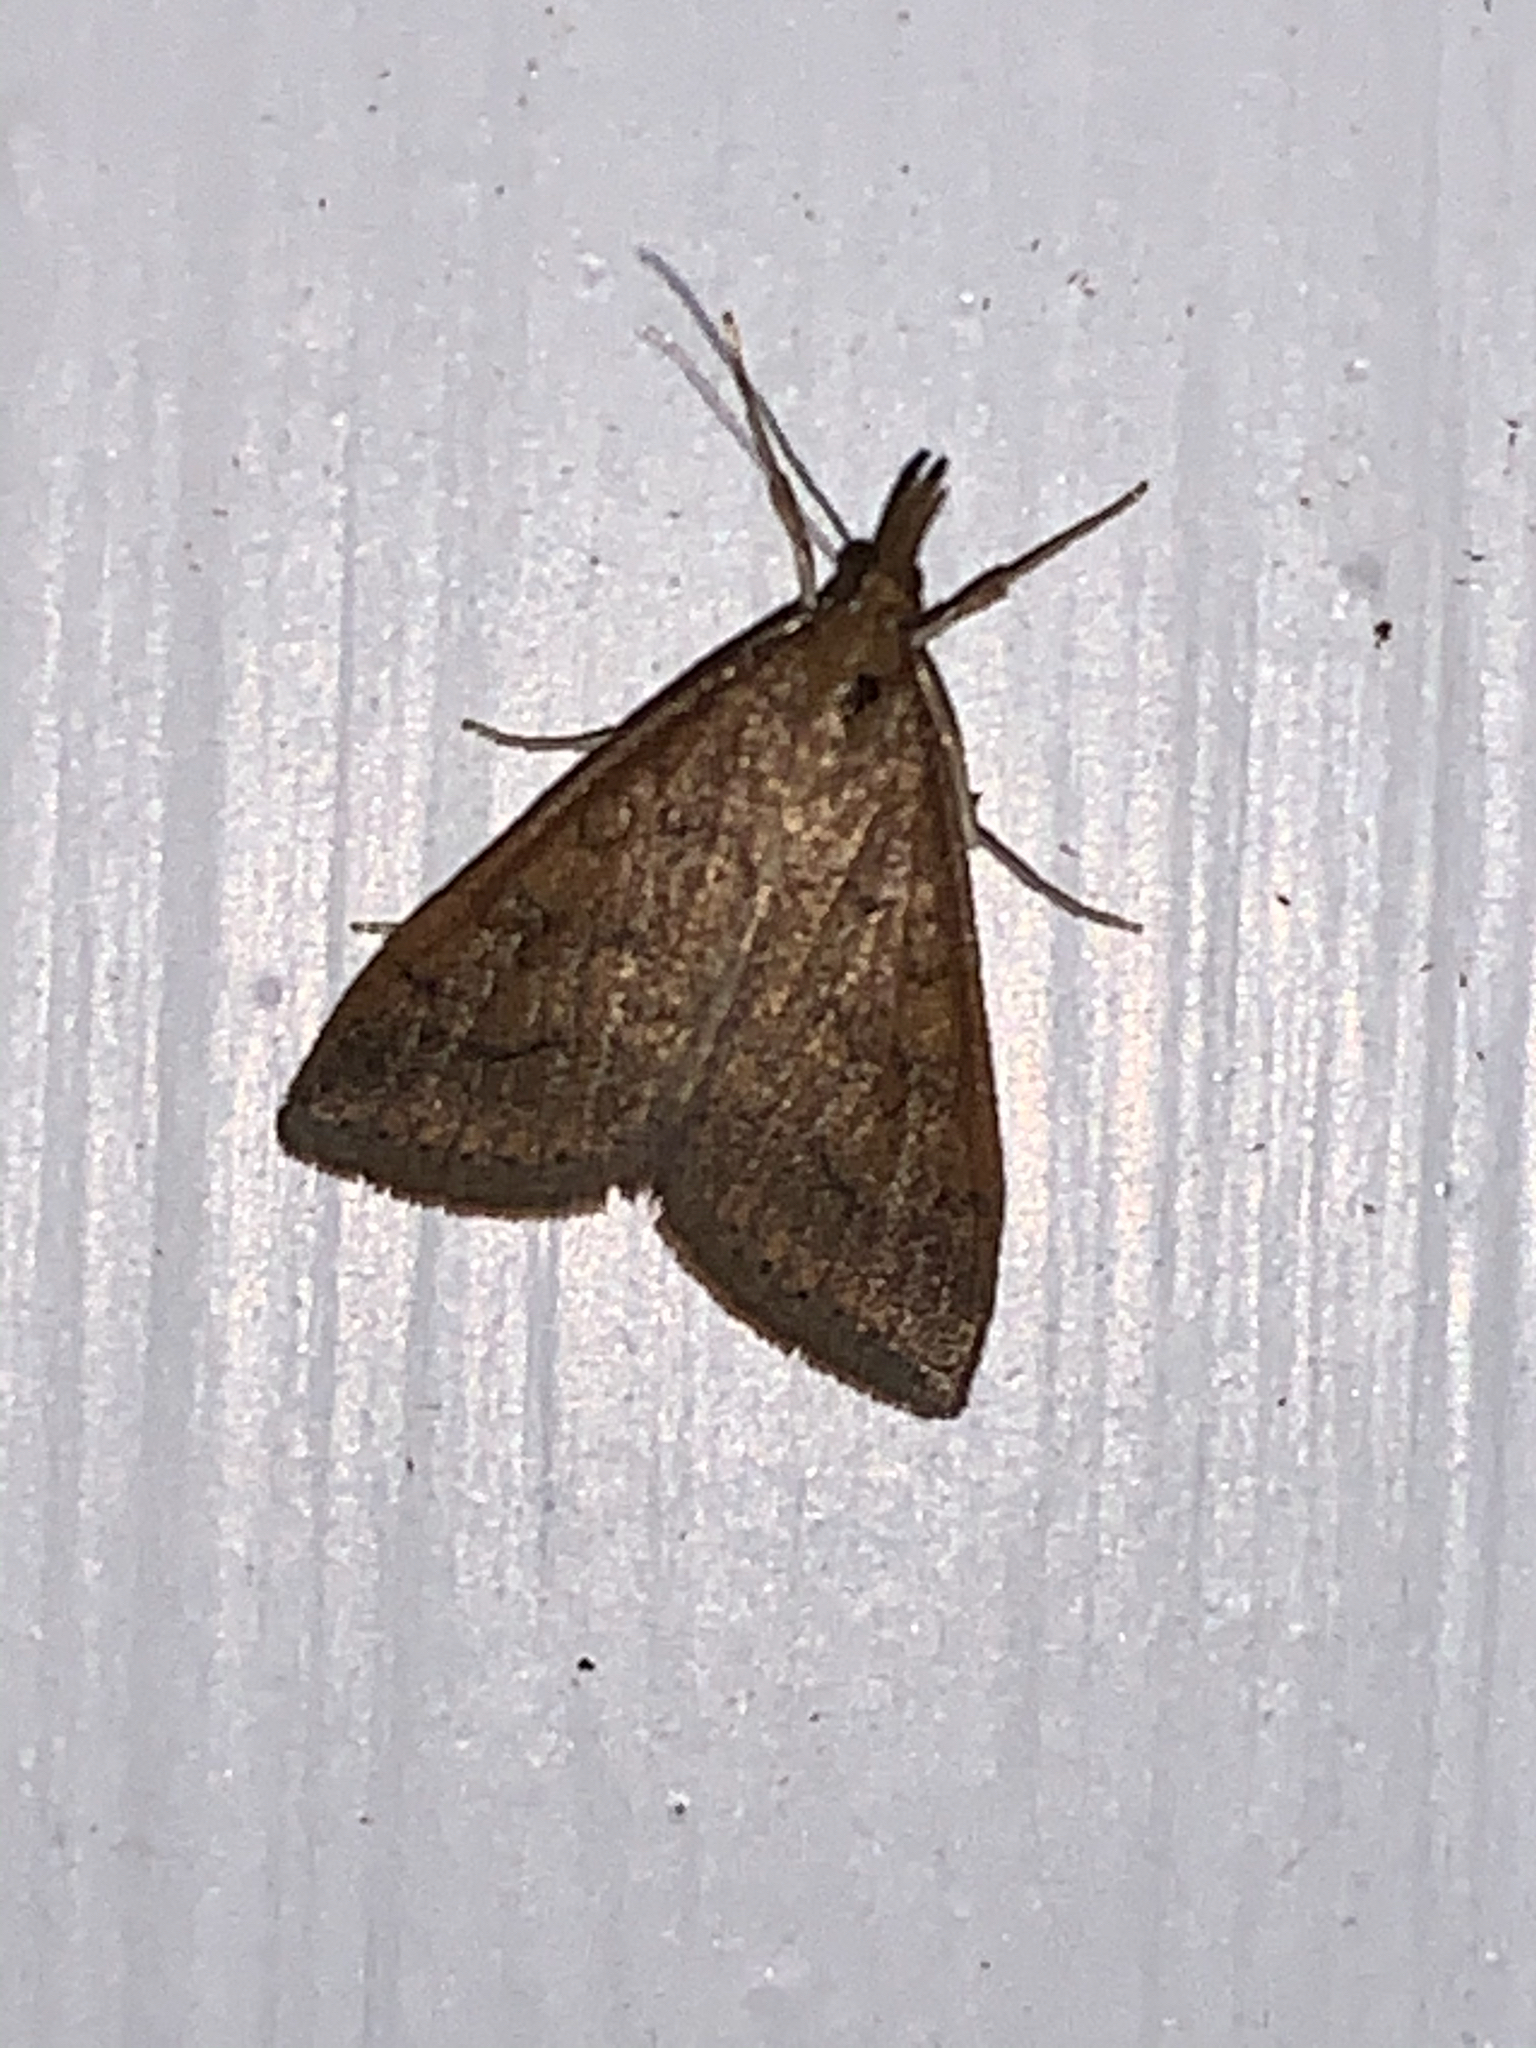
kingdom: Animalia
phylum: Arthropoda
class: Insecta
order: Lepidoptera
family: Crambidae
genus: Udea
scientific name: Udea rubigalis
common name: Celery leaftier moth
